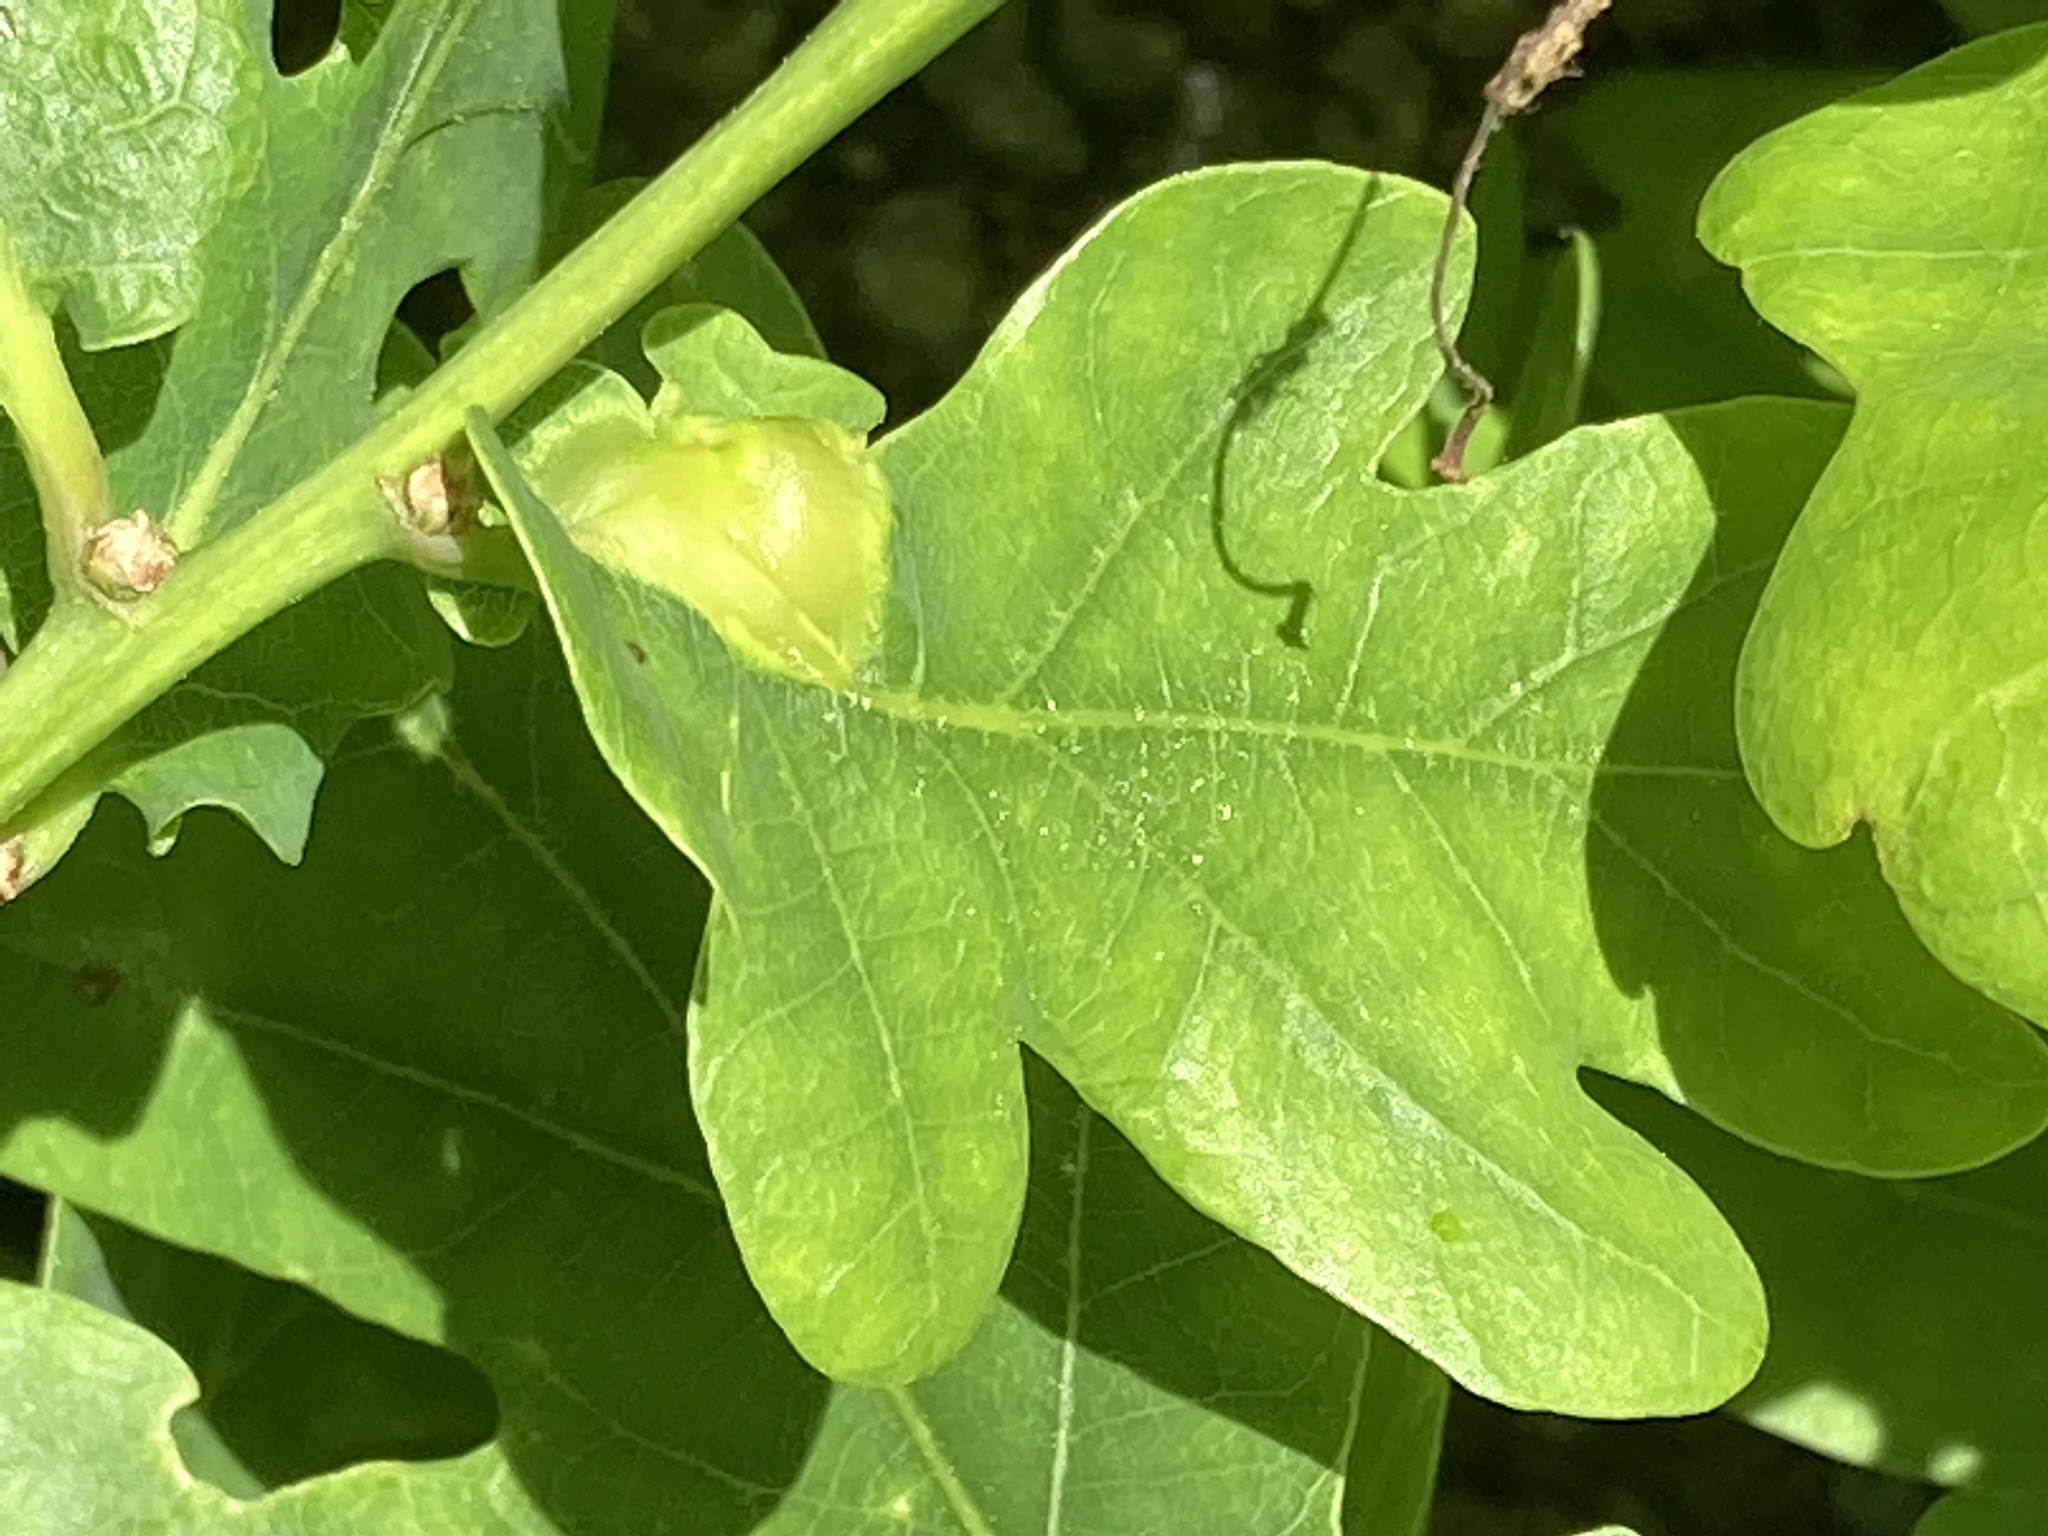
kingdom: Animalia
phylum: Arthropoda
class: Insecta
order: Hymenoptera
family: Cynipidae
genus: Andricus
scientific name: Andricus curvator
